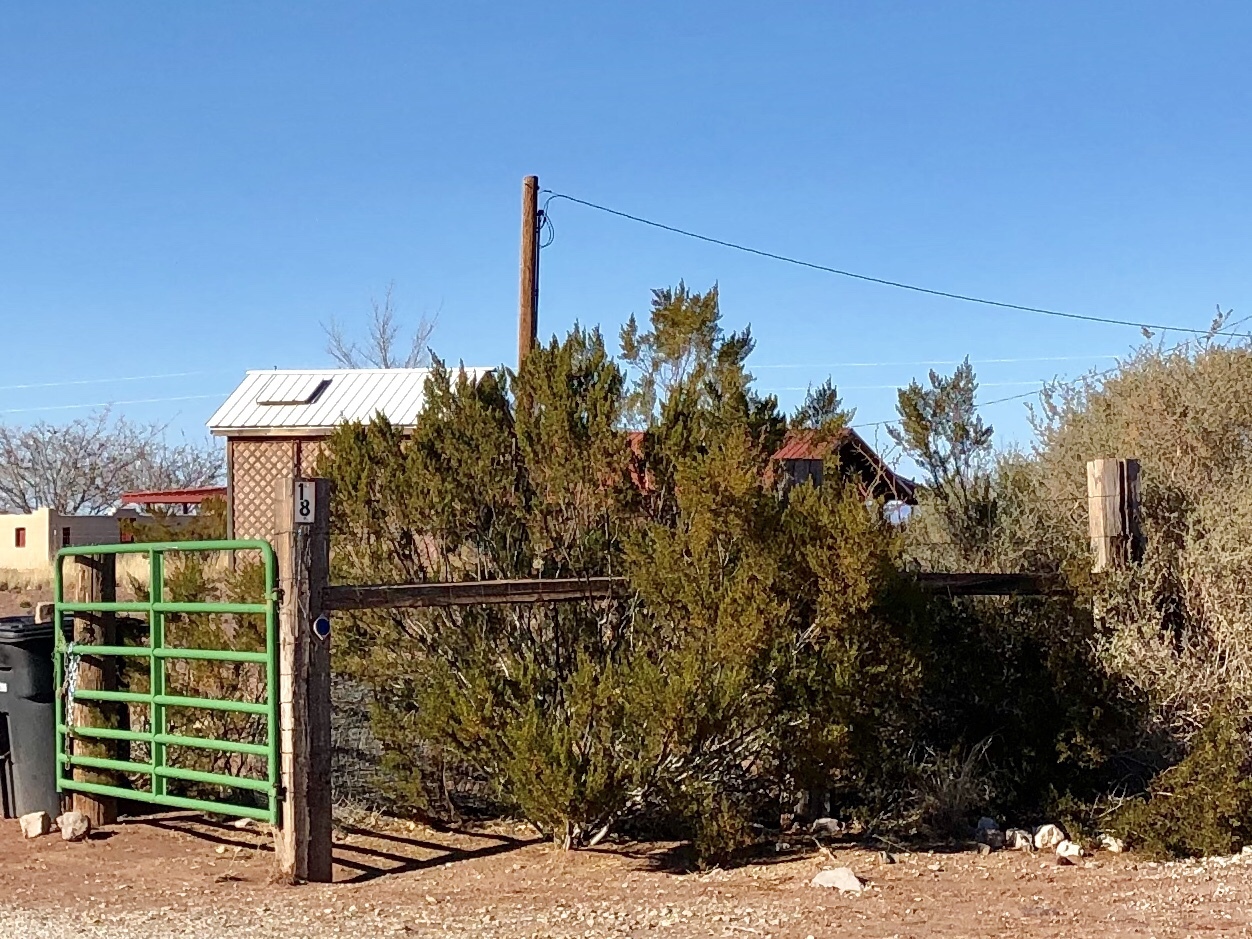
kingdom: Plantae
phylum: Tracheophyta
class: Magnoliopsida
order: Zygophyllales
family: Zygophyllaceae
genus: Larrea
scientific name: Larrea tridentata
